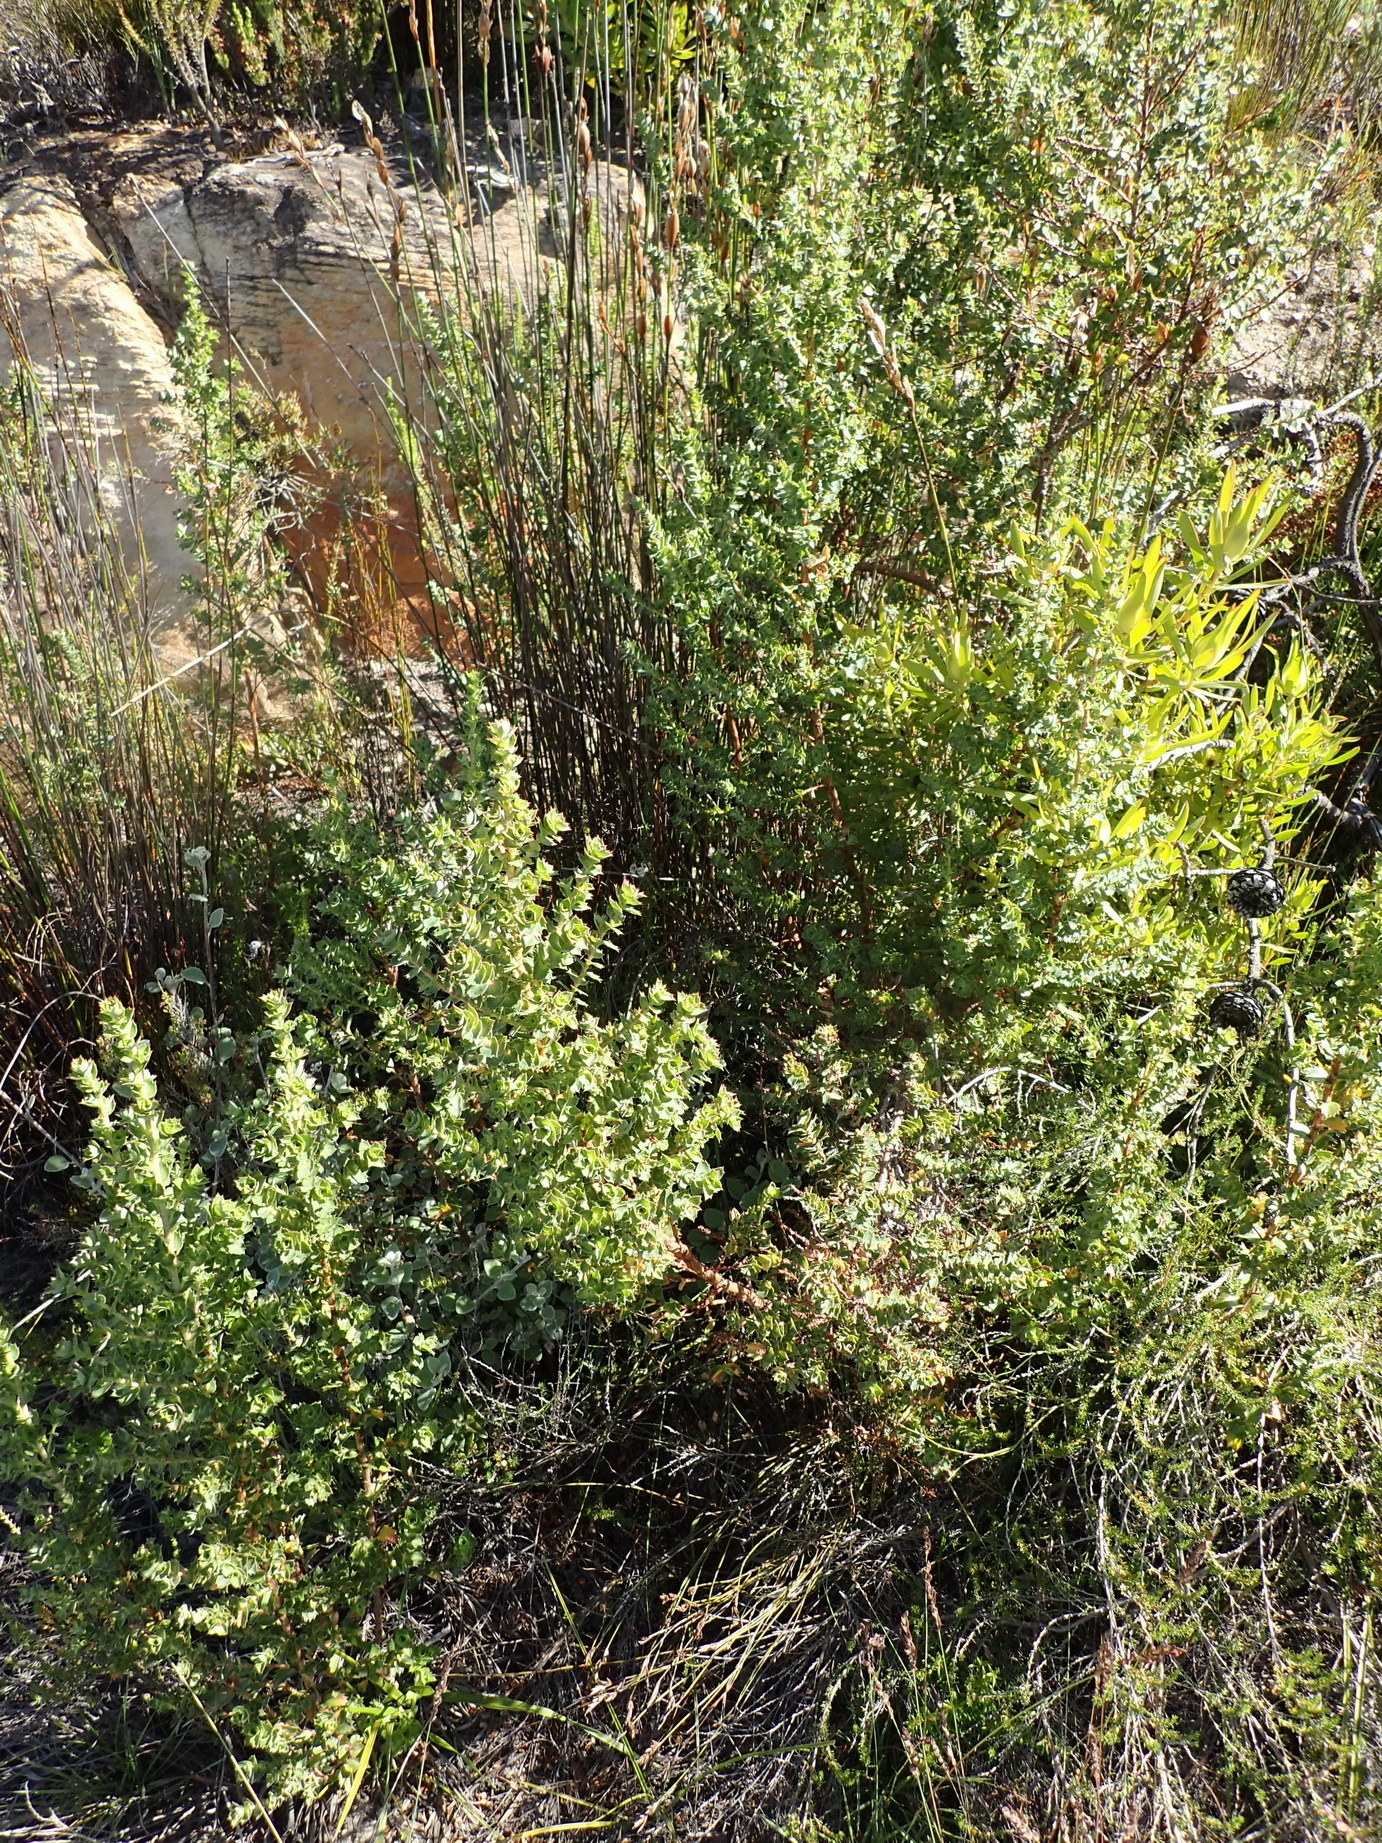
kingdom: Plantae
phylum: Tracheophyta
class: Magnoliopsida
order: Rosales
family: Rosaceae
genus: Cliffortia
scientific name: Cliffortia ilicifolia
